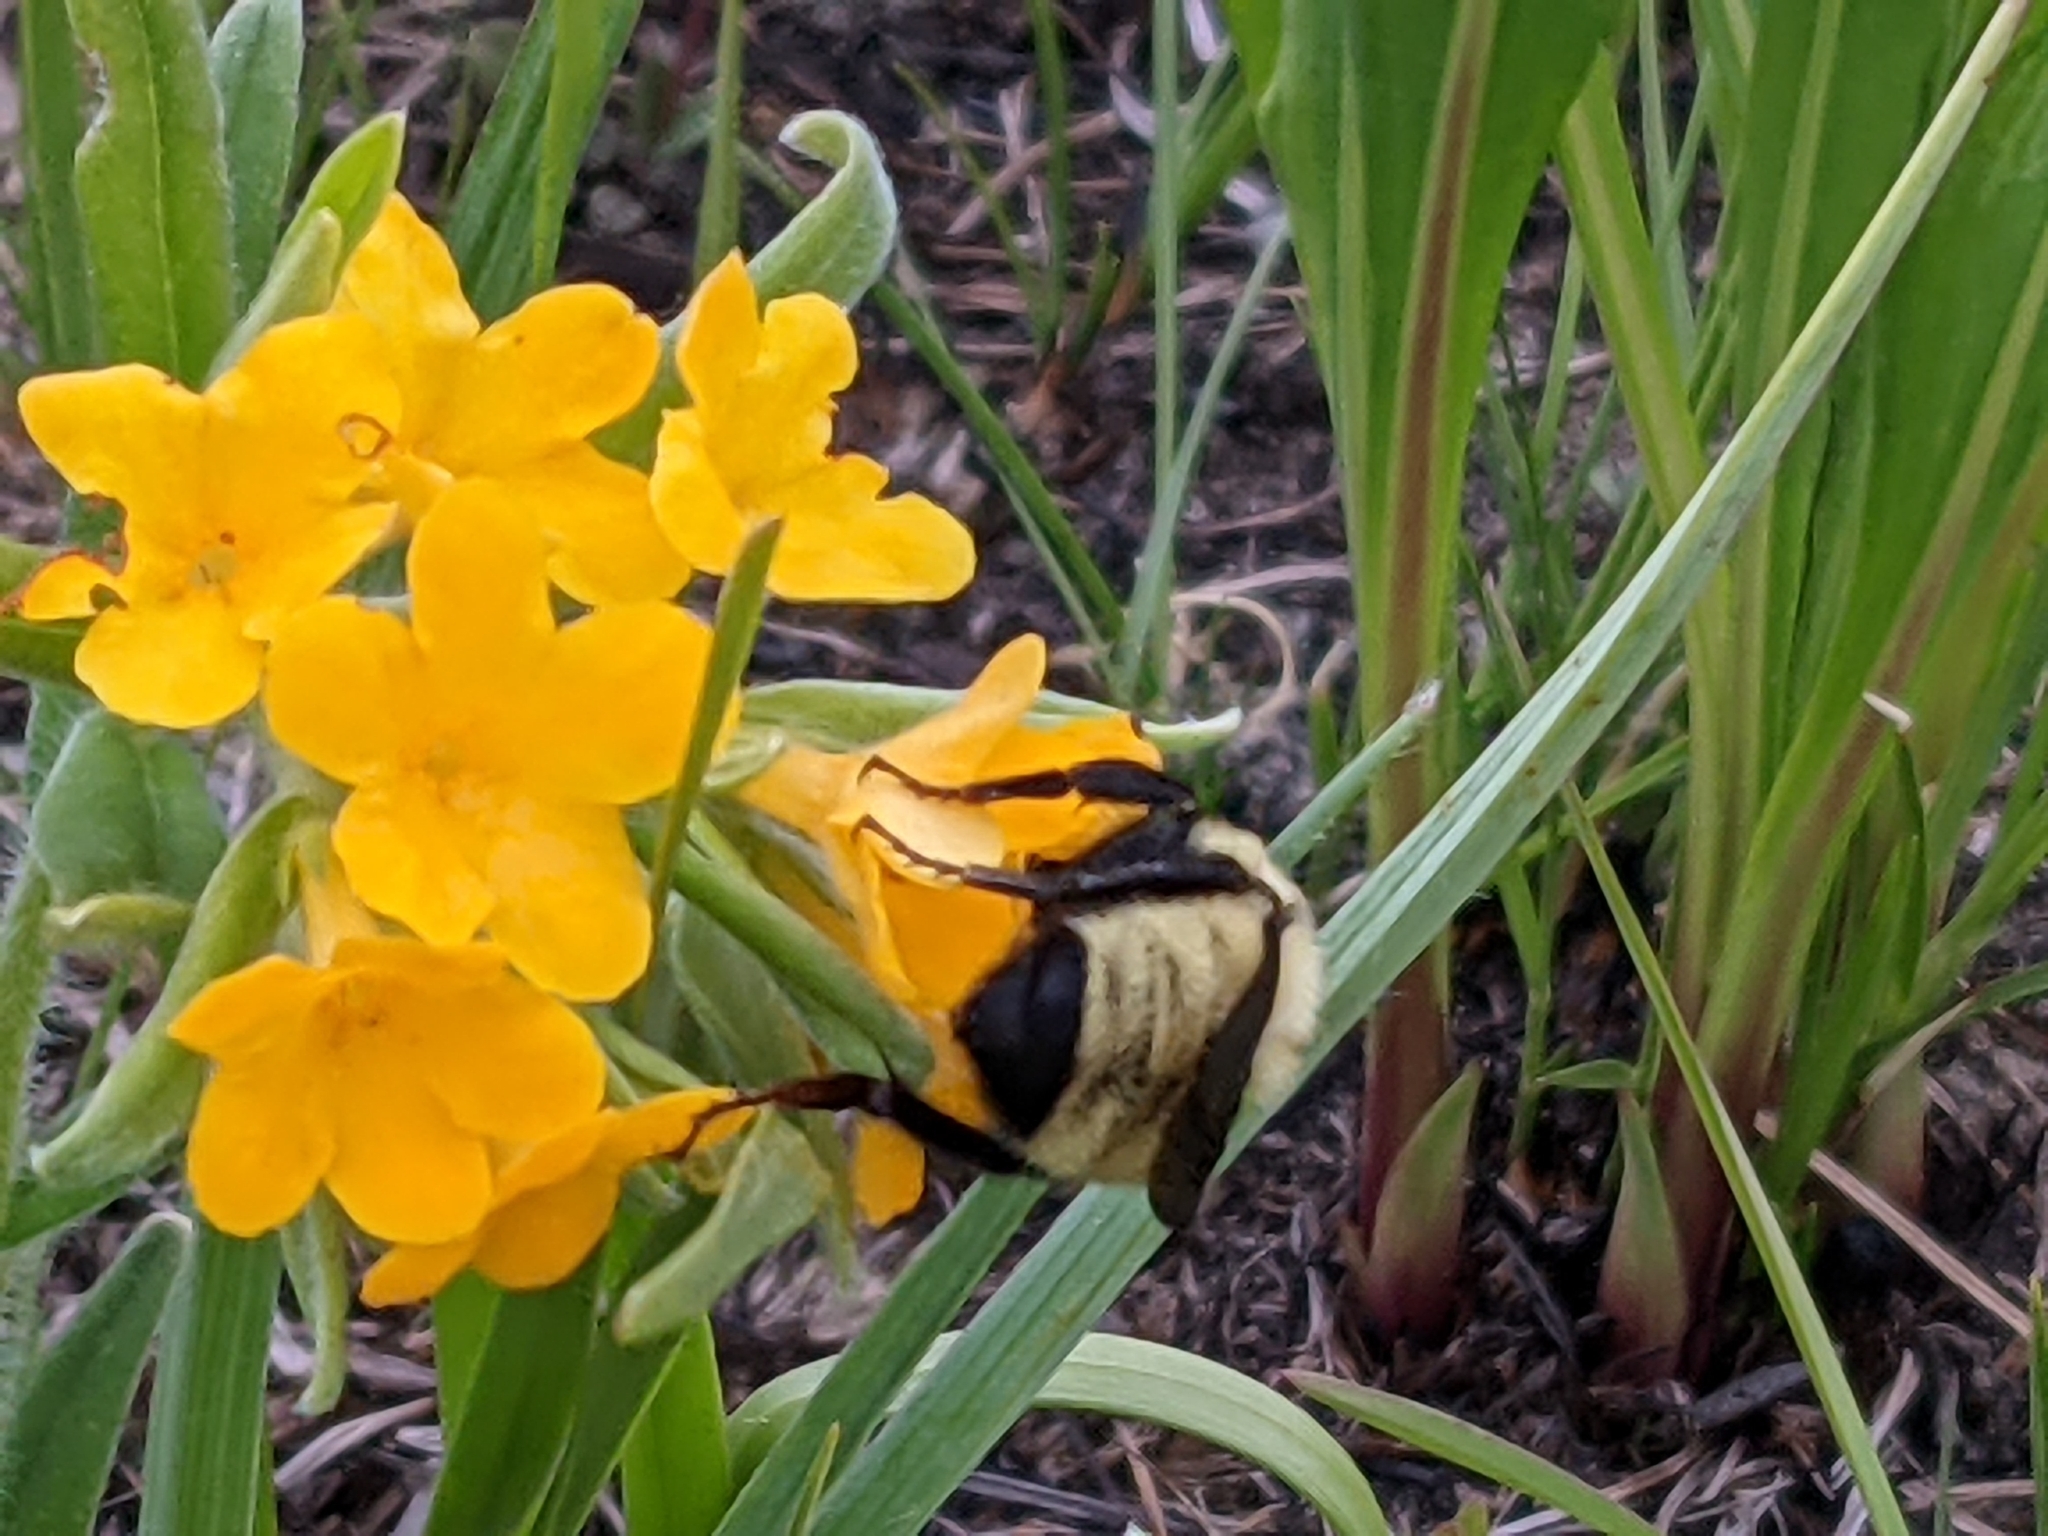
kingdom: Animalia
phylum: Arthropoda
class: Insecta
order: Hymenoptera
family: Apidae
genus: Bombus
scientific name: Bombus fervidus
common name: Yellow bumble bee
